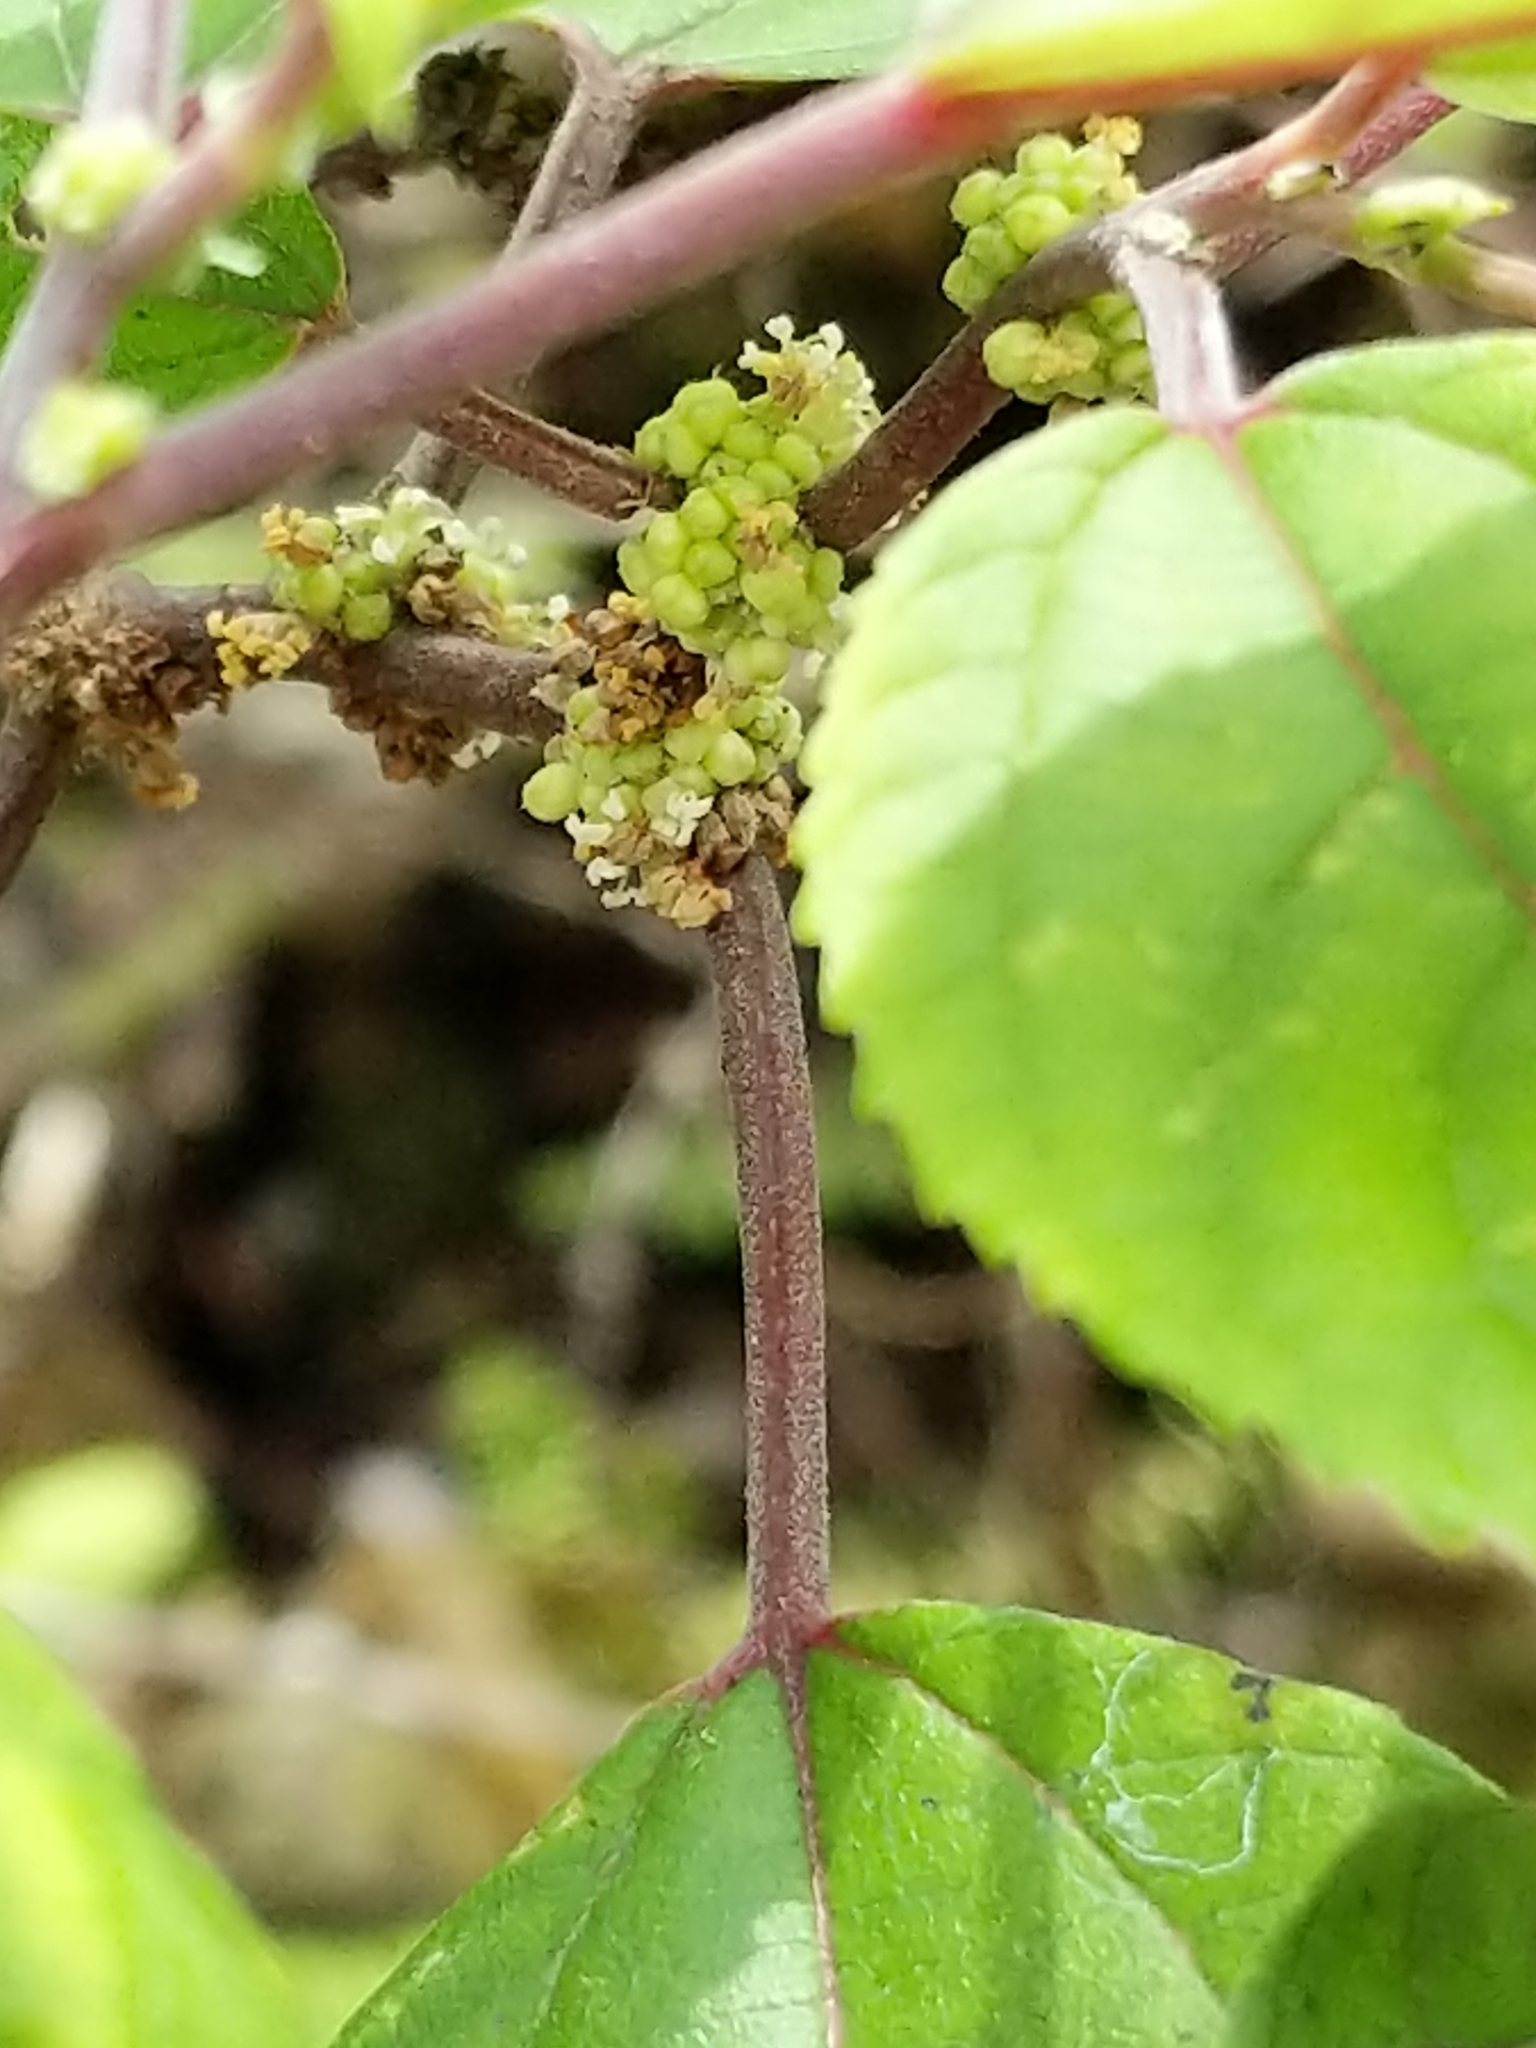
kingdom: Plantae
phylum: Tracheophyta
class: Magnoliopsida
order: Rosales
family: Urticaceae
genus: Pipturus
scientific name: Pipturus albidus
